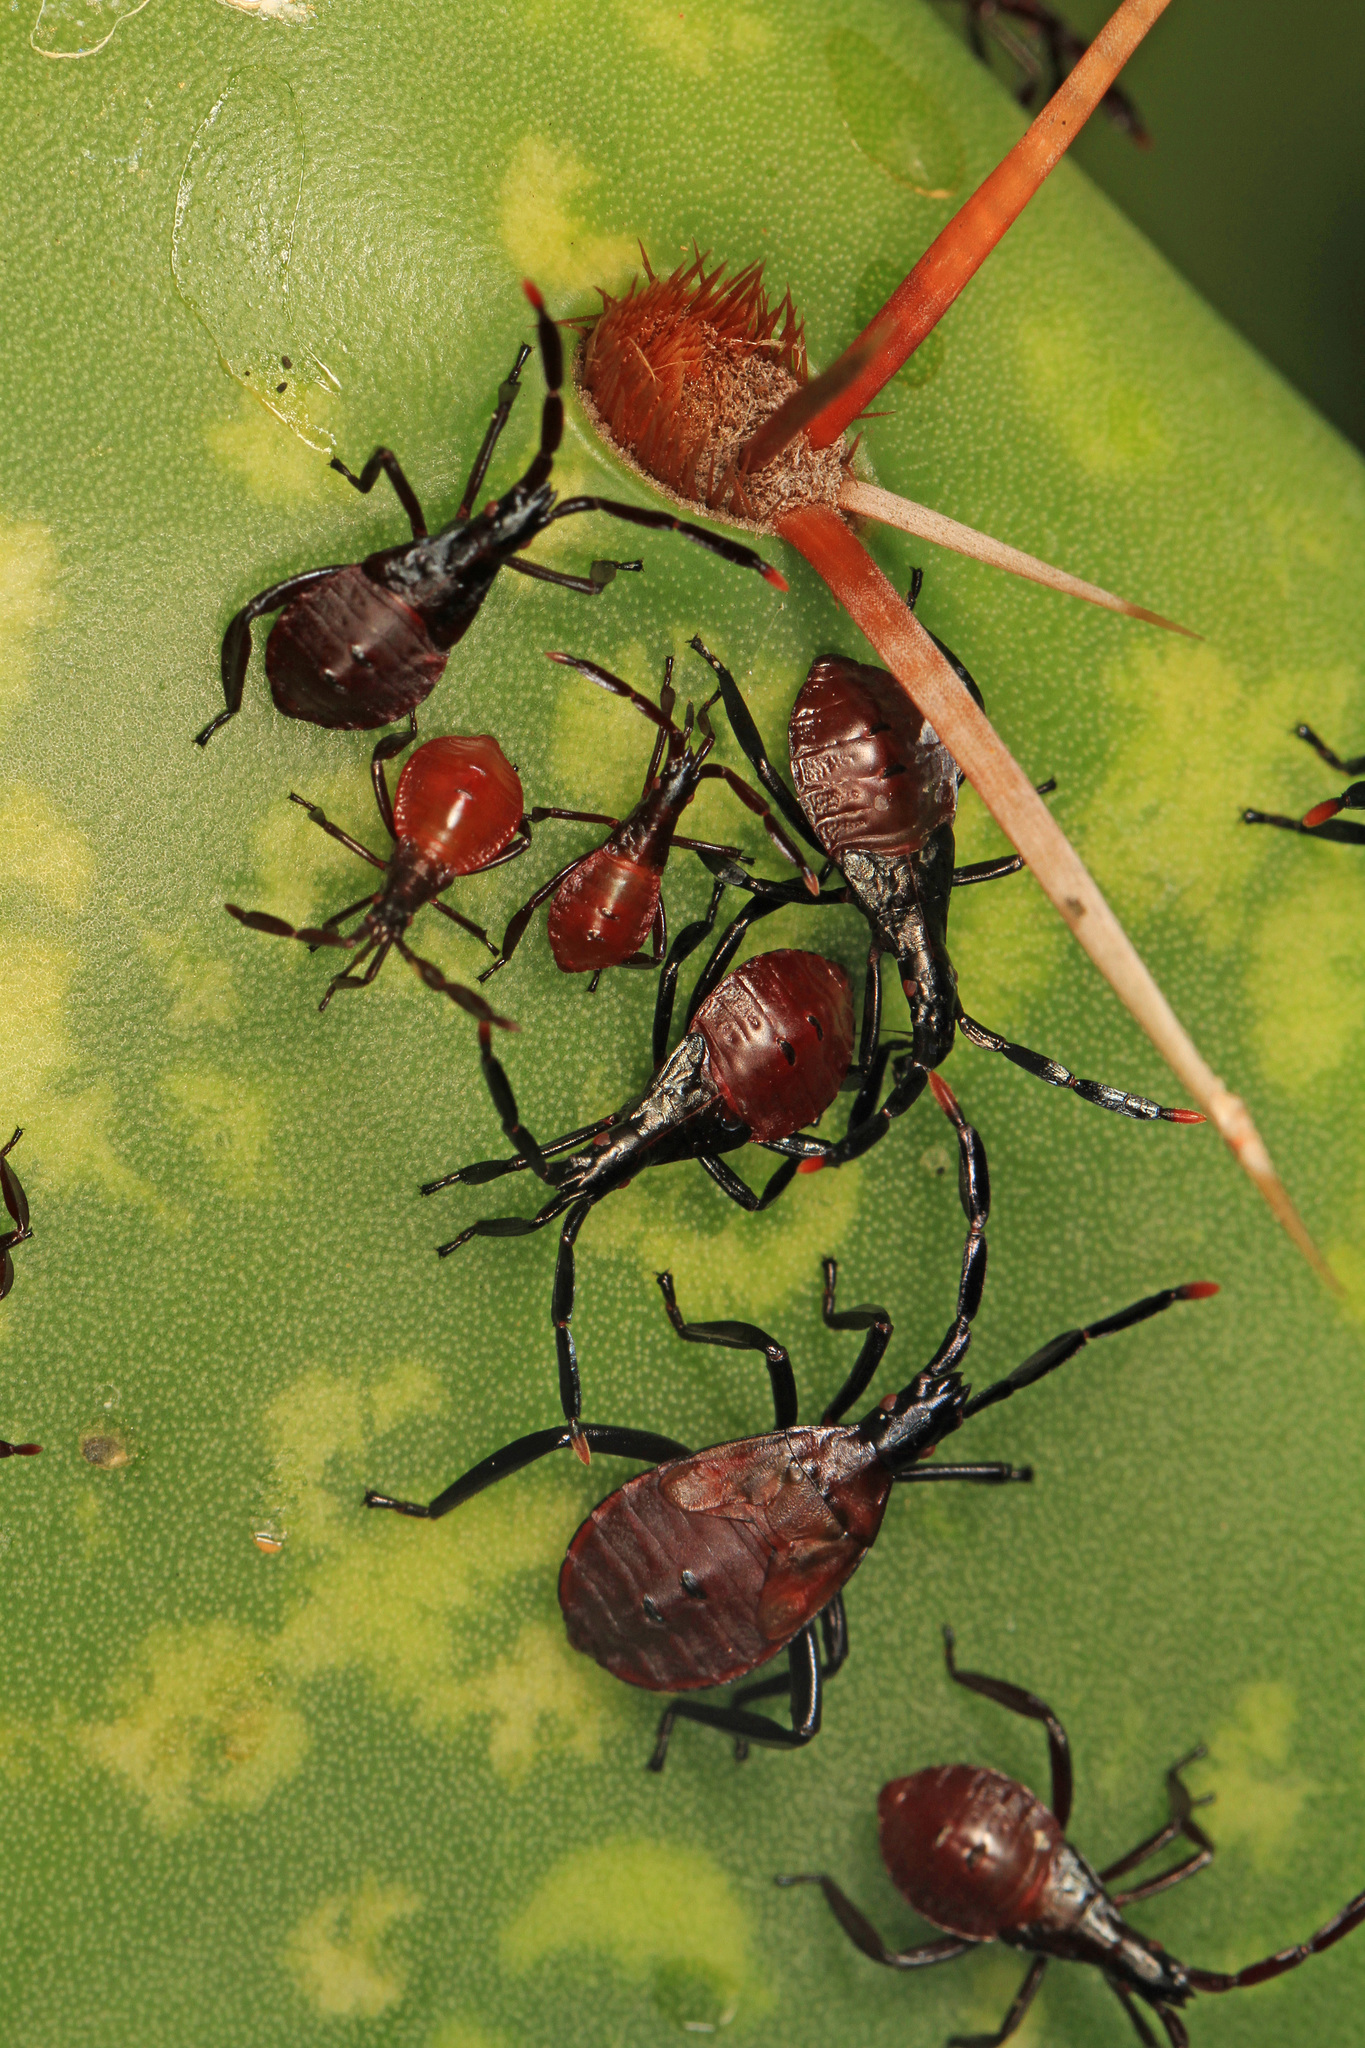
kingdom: Animalia
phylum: Arthropoda
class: Insecta
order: Hemiptera
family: Coreidae
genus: Chelinidea
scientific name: Chelinidea vittiger
